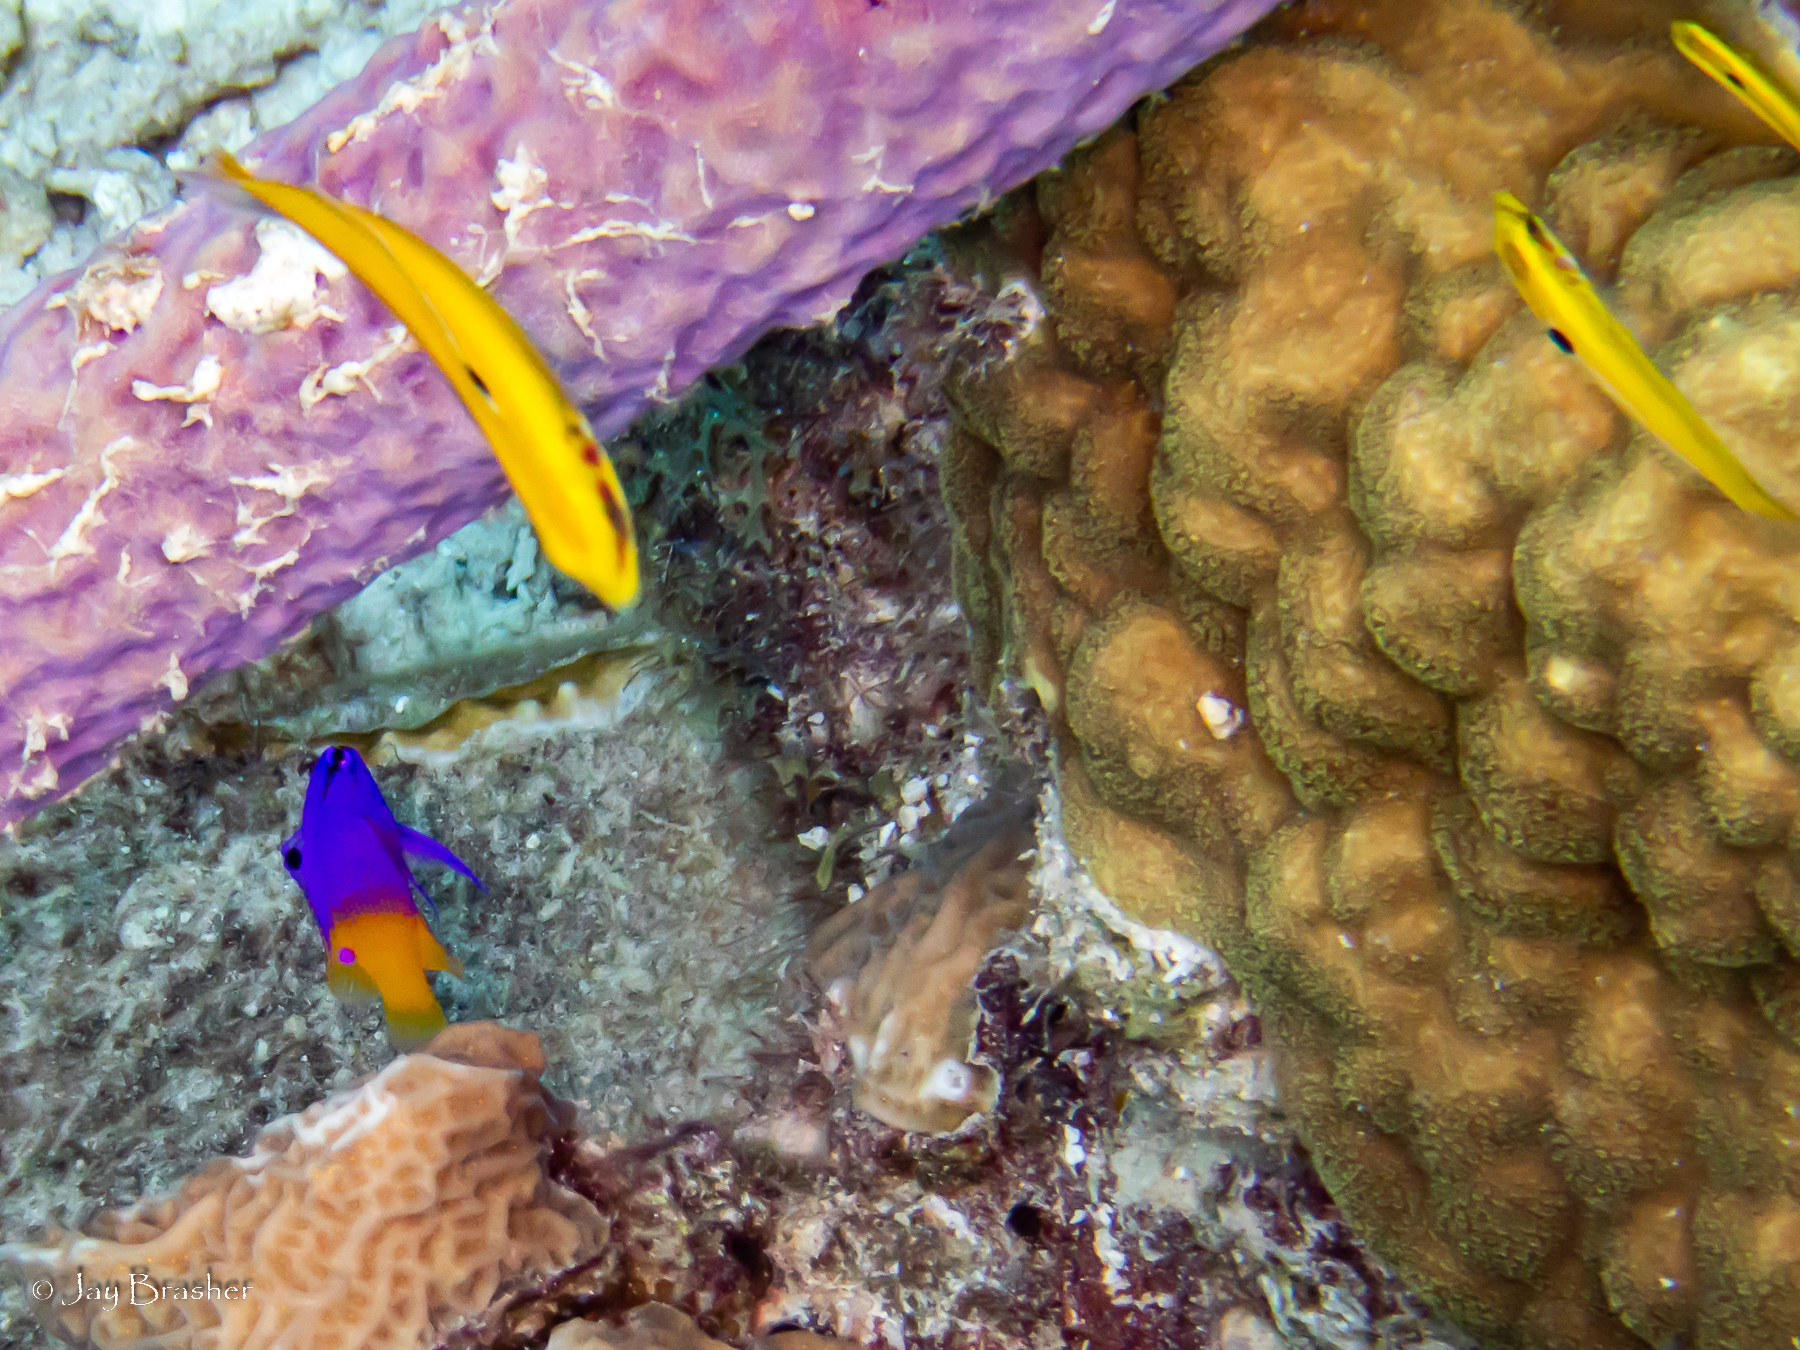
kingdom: Animalia
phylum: Chordata
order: Perciformes
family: Grammatidae
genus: Gramma
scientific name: Gramma loreto
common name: Fairy basslet
